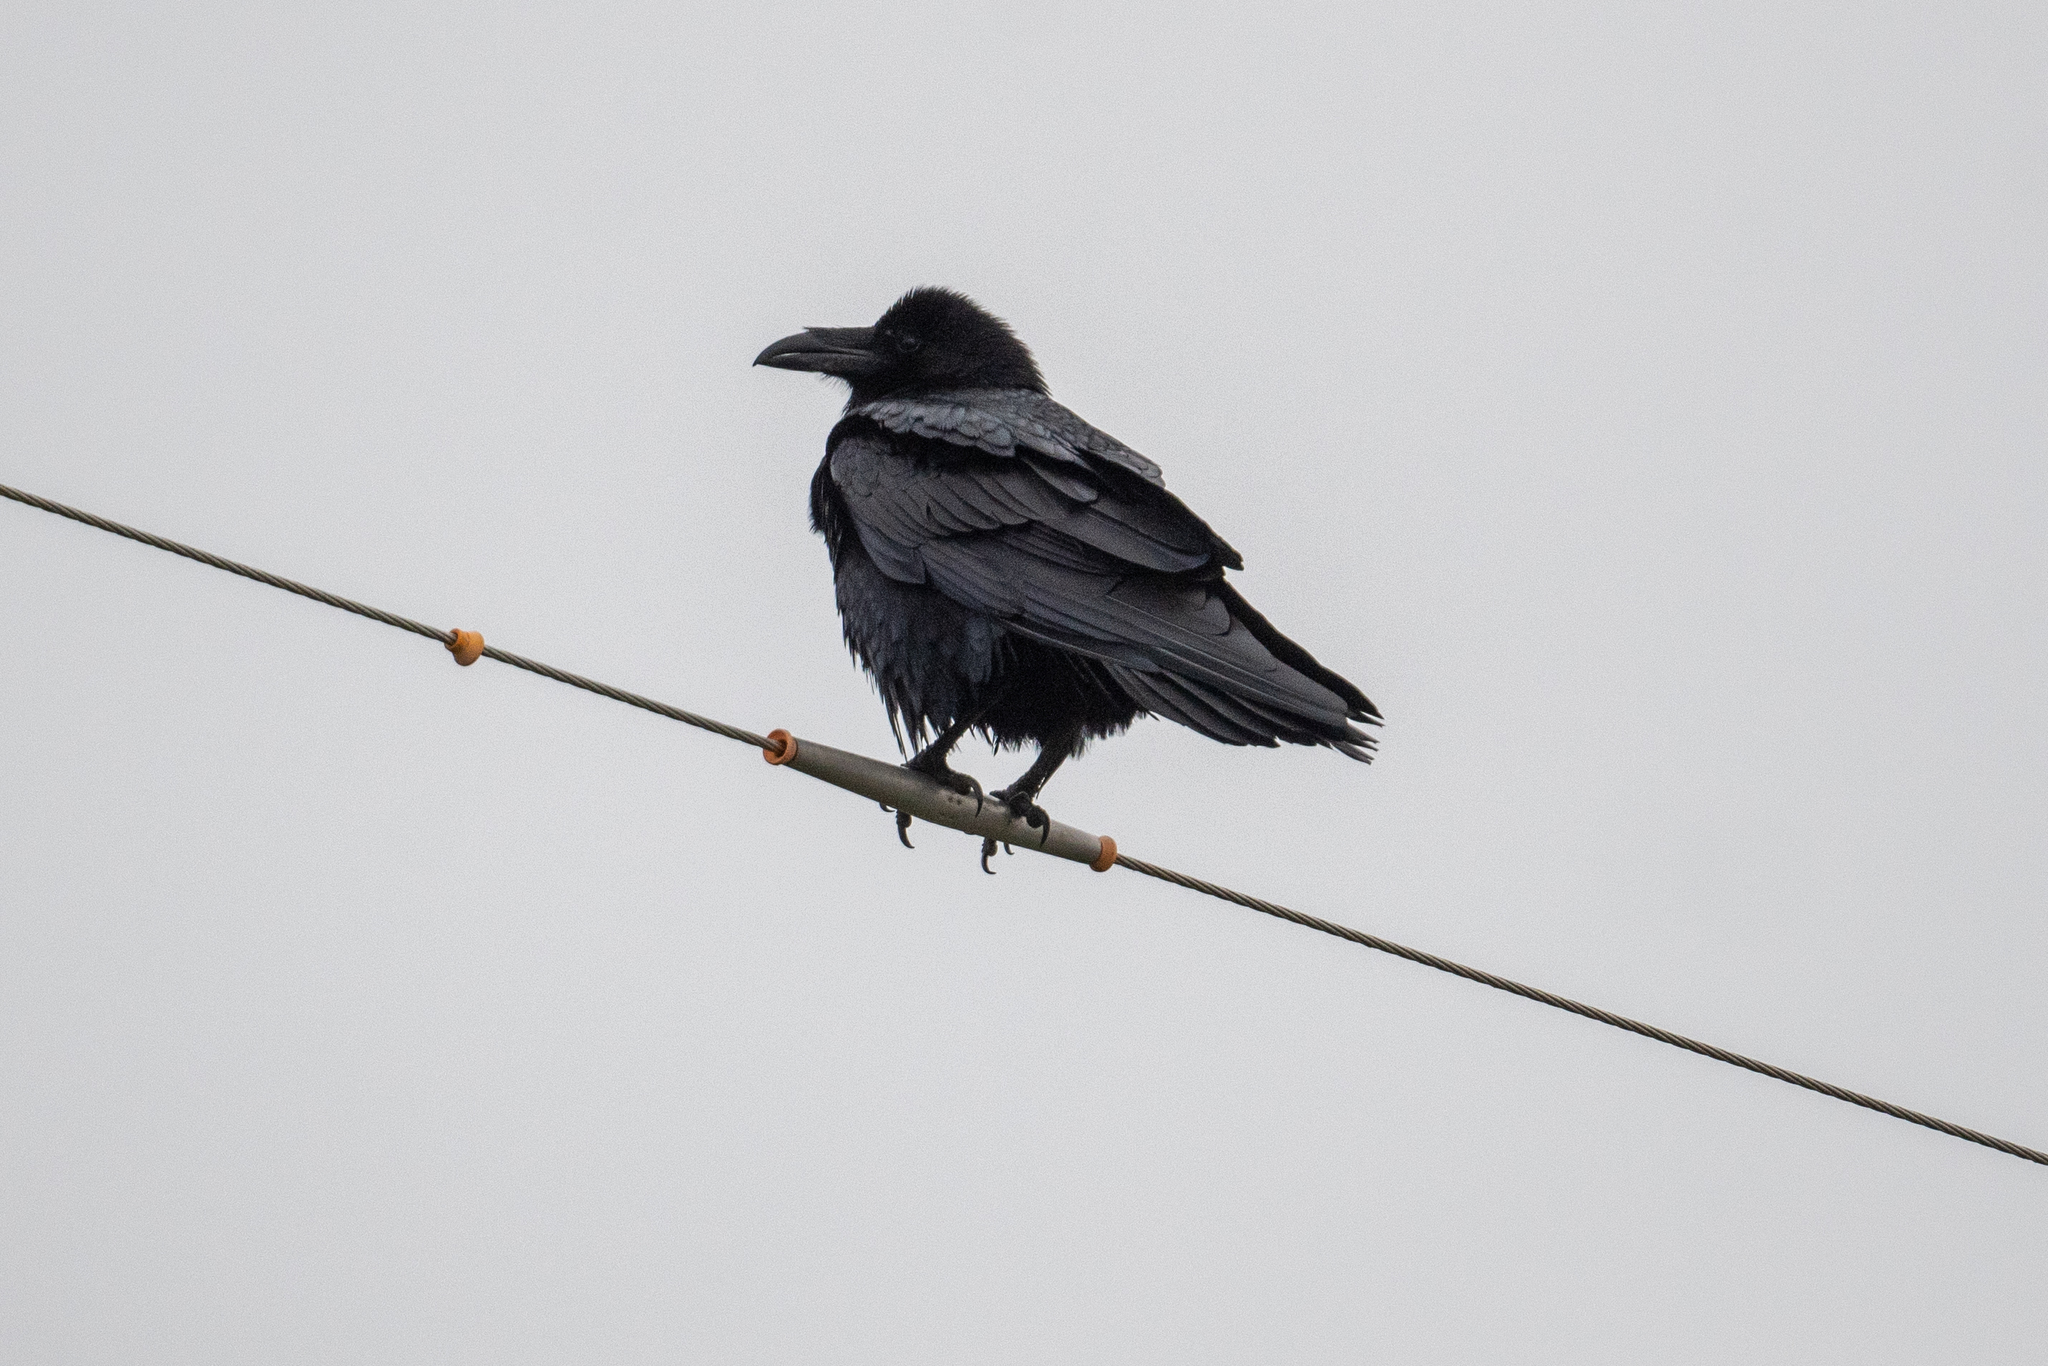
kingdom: Animalia
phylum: Chordata
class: Aves
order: Passeriformes
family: Corvidae
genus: Corvus
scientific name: Corvus corax
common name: Common raven
